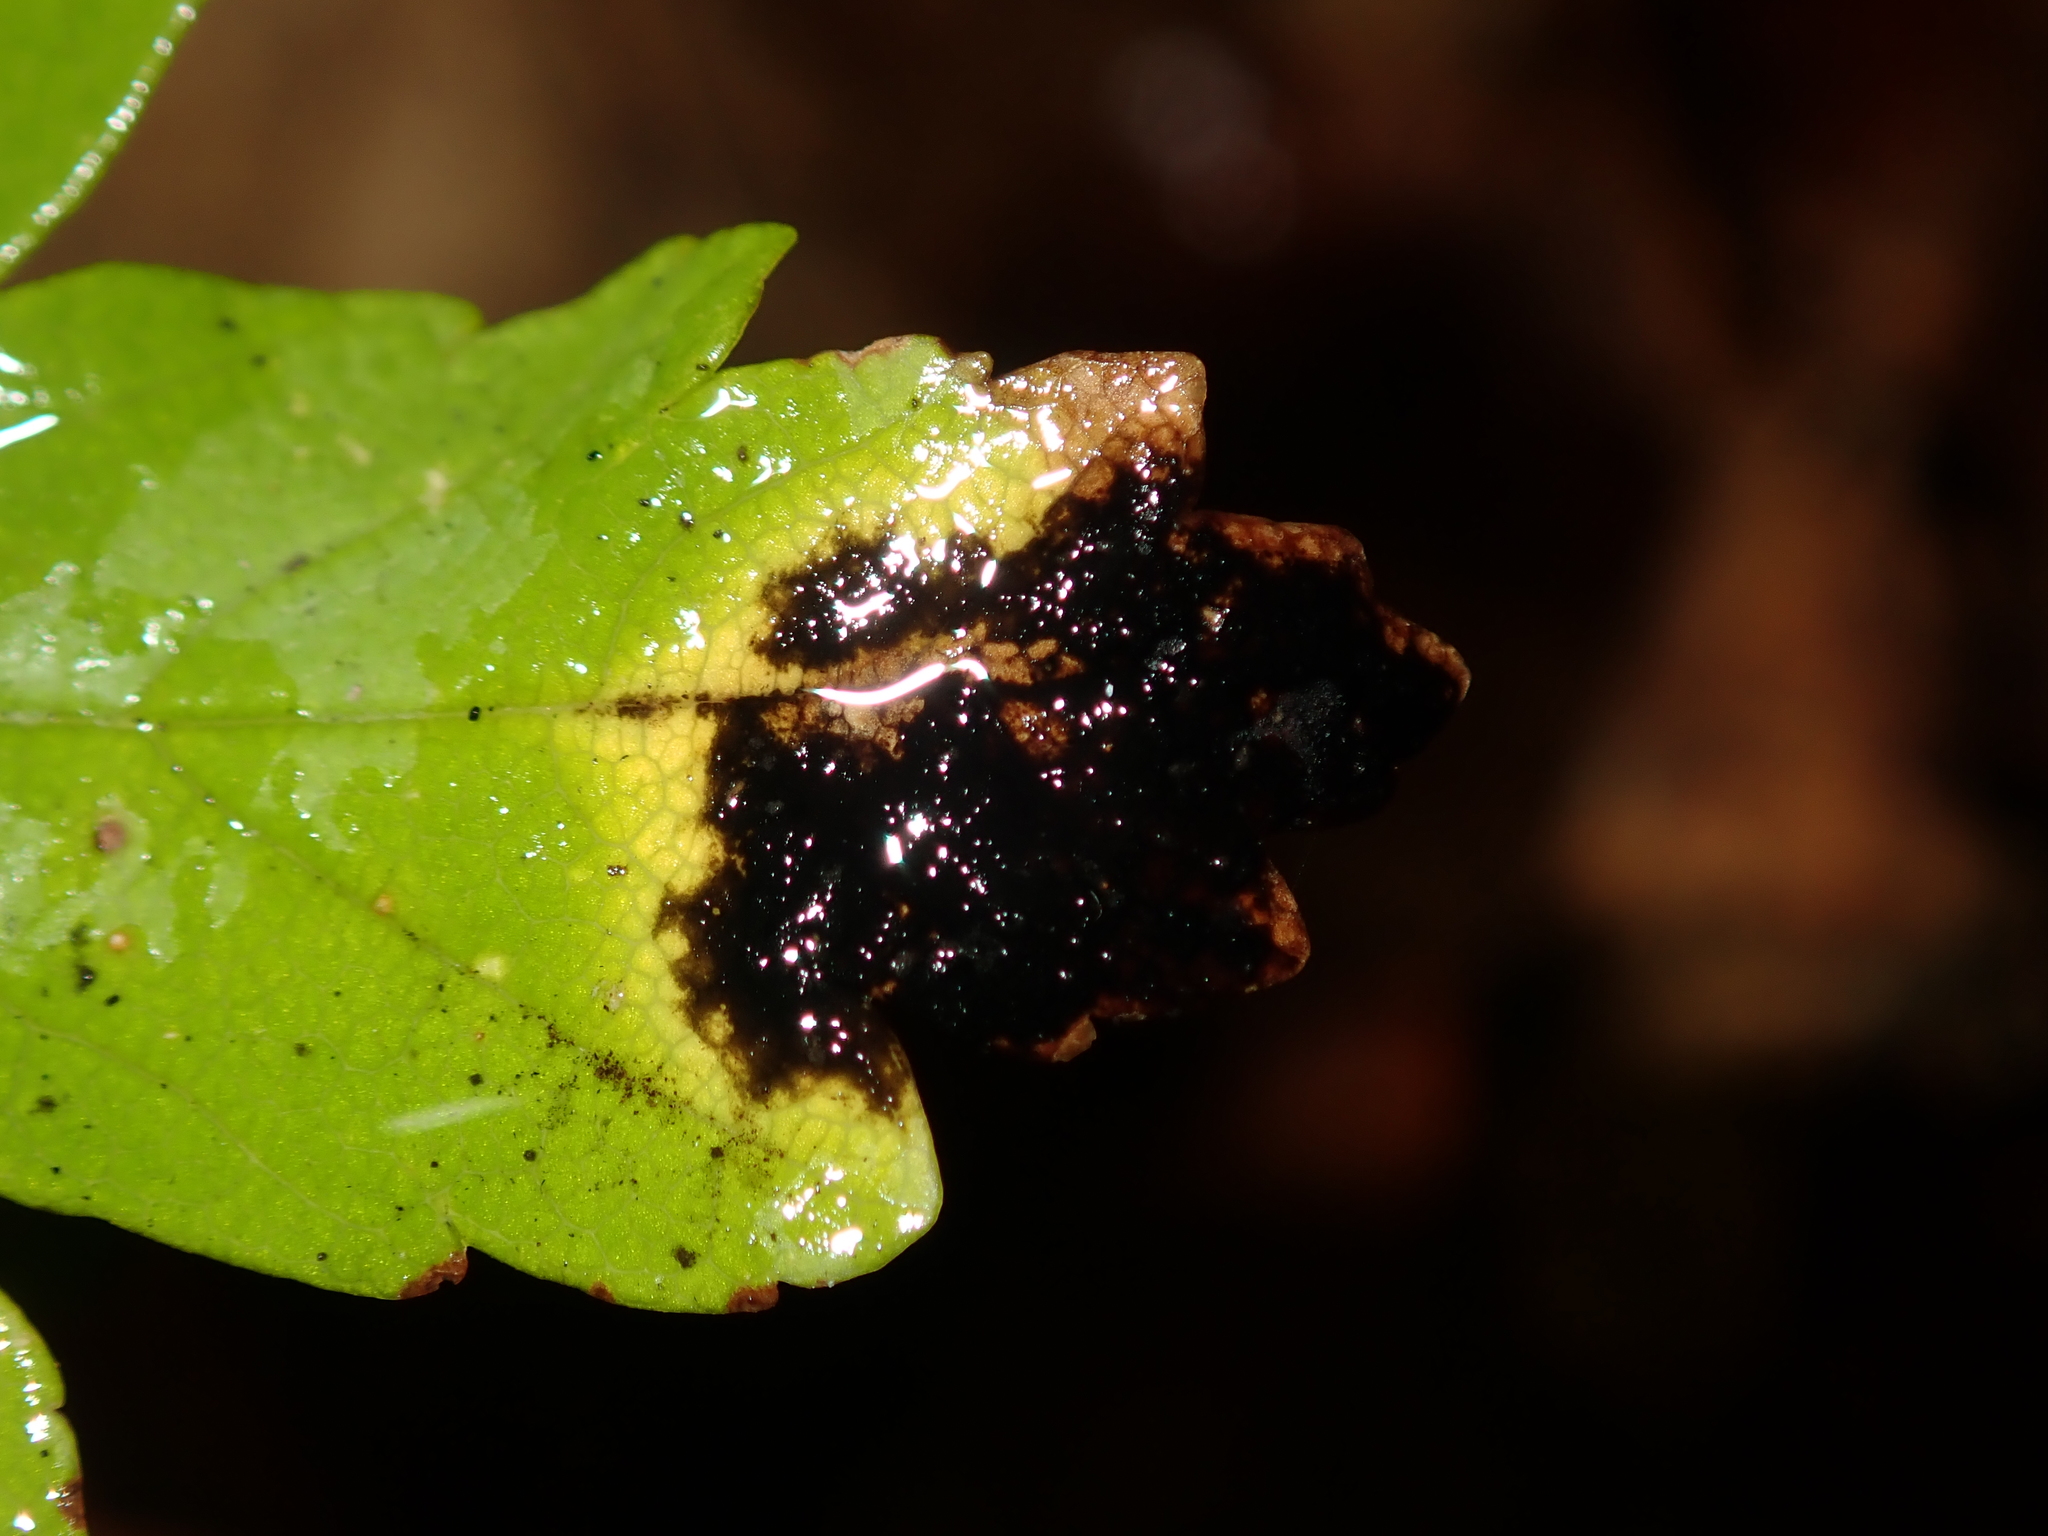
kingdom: Fungi
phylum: Ascomycota
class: Leotiomycetes
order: Rhytismatales
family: Rhytismataceae
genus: Rhytisma
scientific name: Rhytisma acerinum
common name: European tar spot
